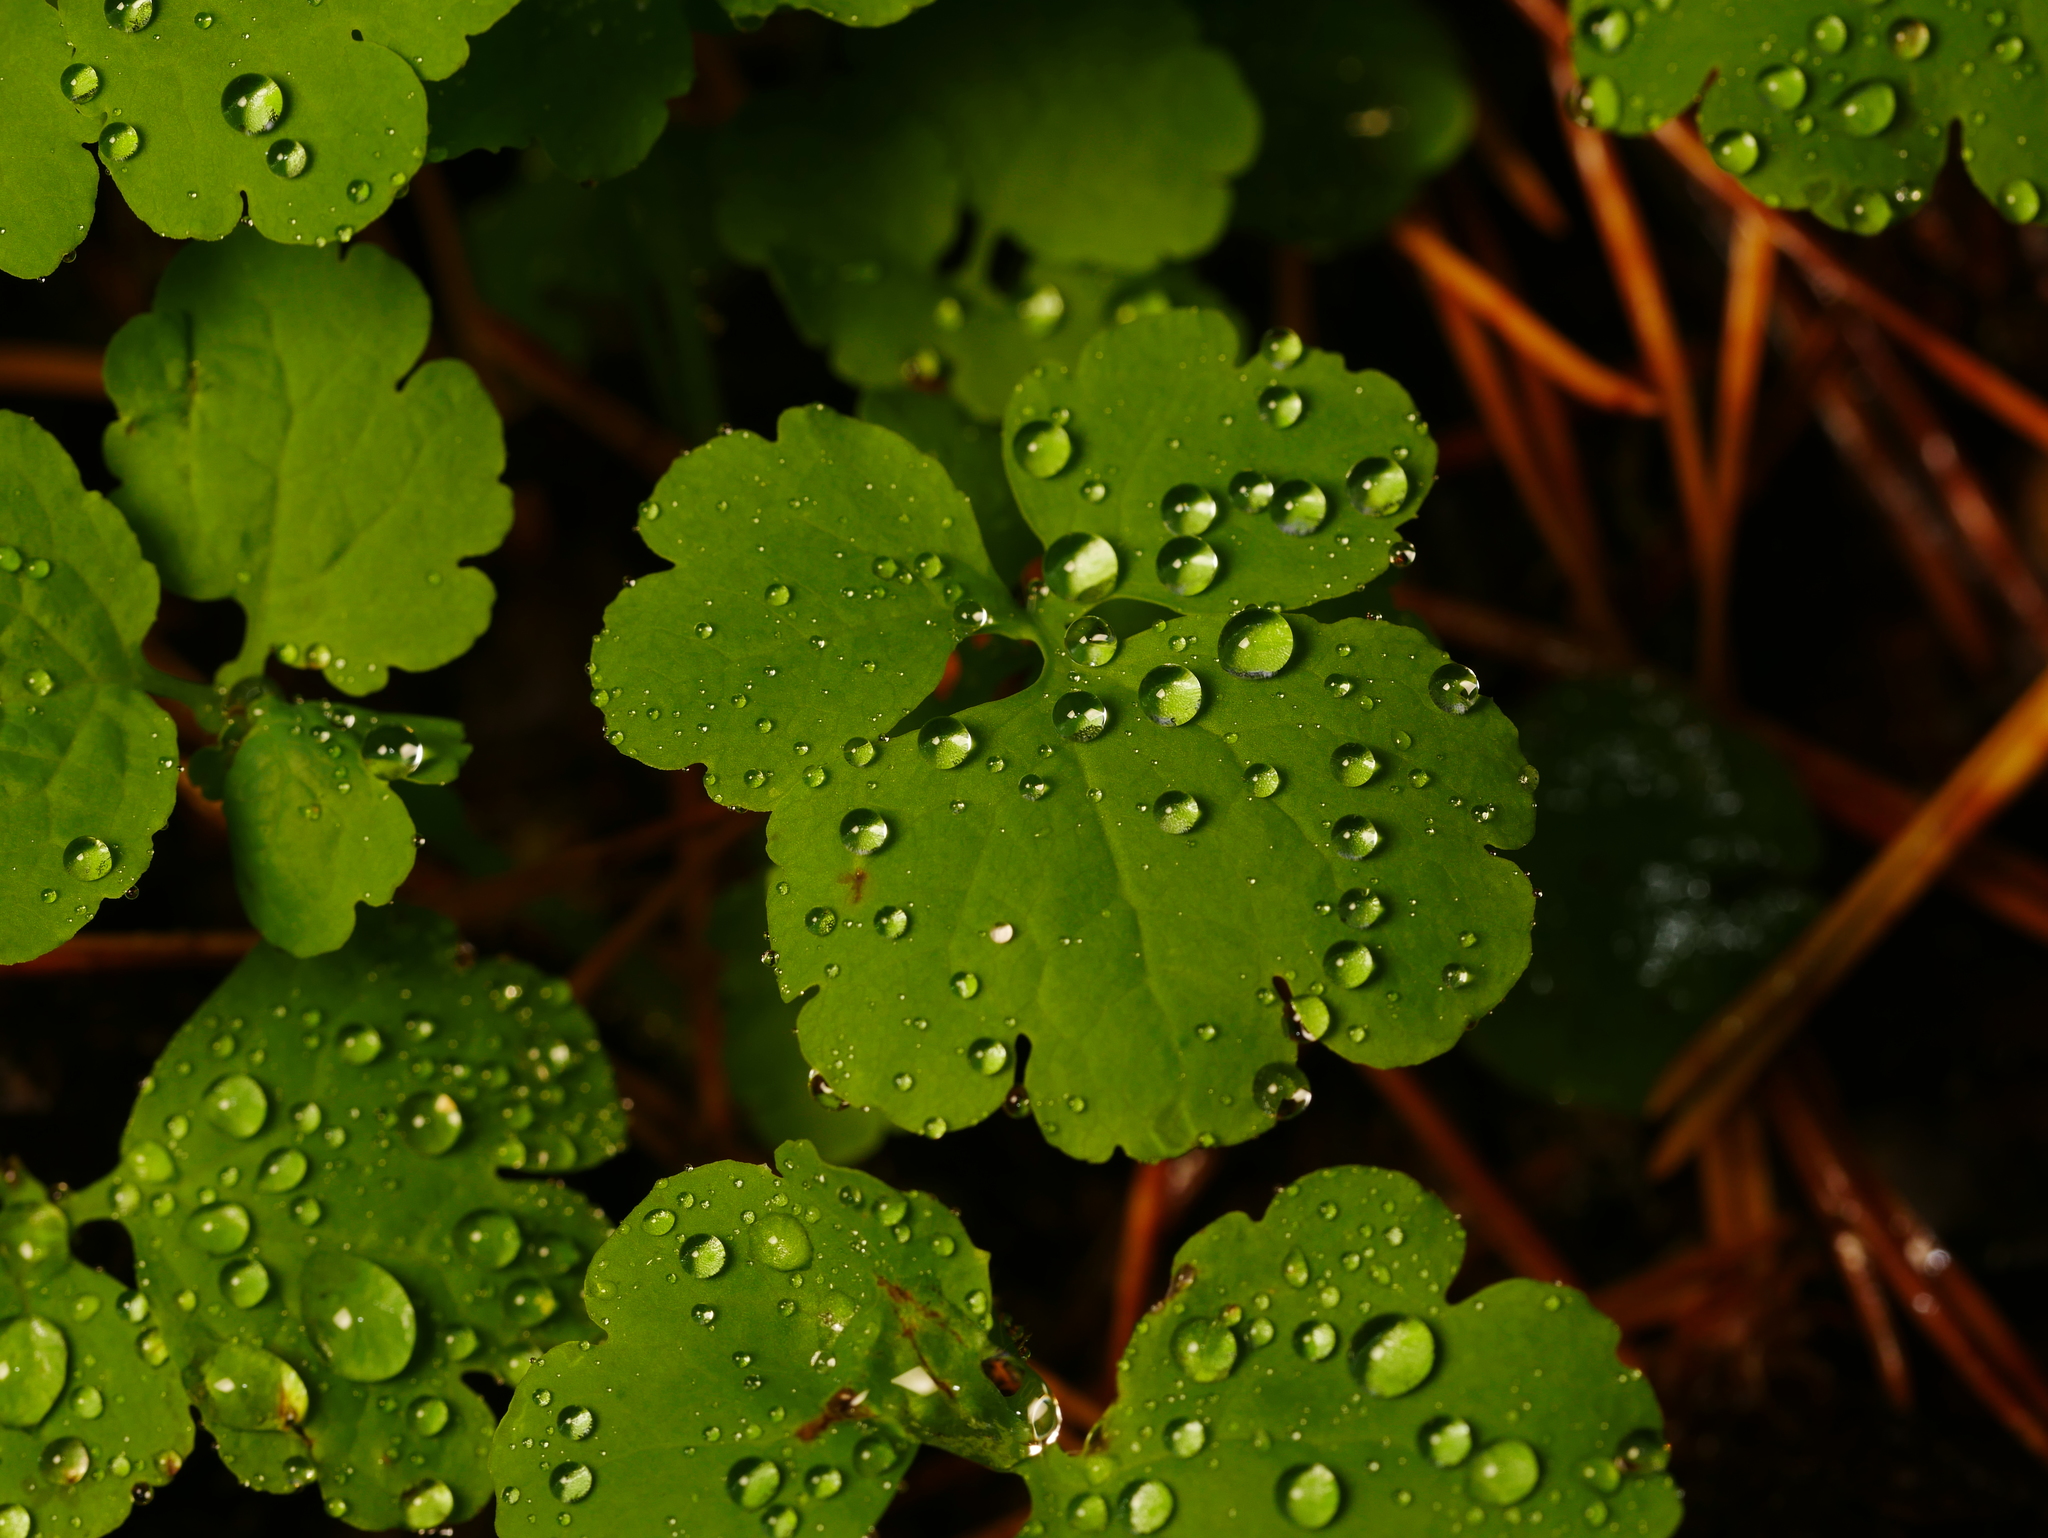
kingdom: Plantae
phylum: Tracheophyta
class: Magnoliopsida
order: Ranunculales
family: Papaveraceae
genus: Chelidonium
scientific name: Chelidonium majus
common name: Greater celandine
